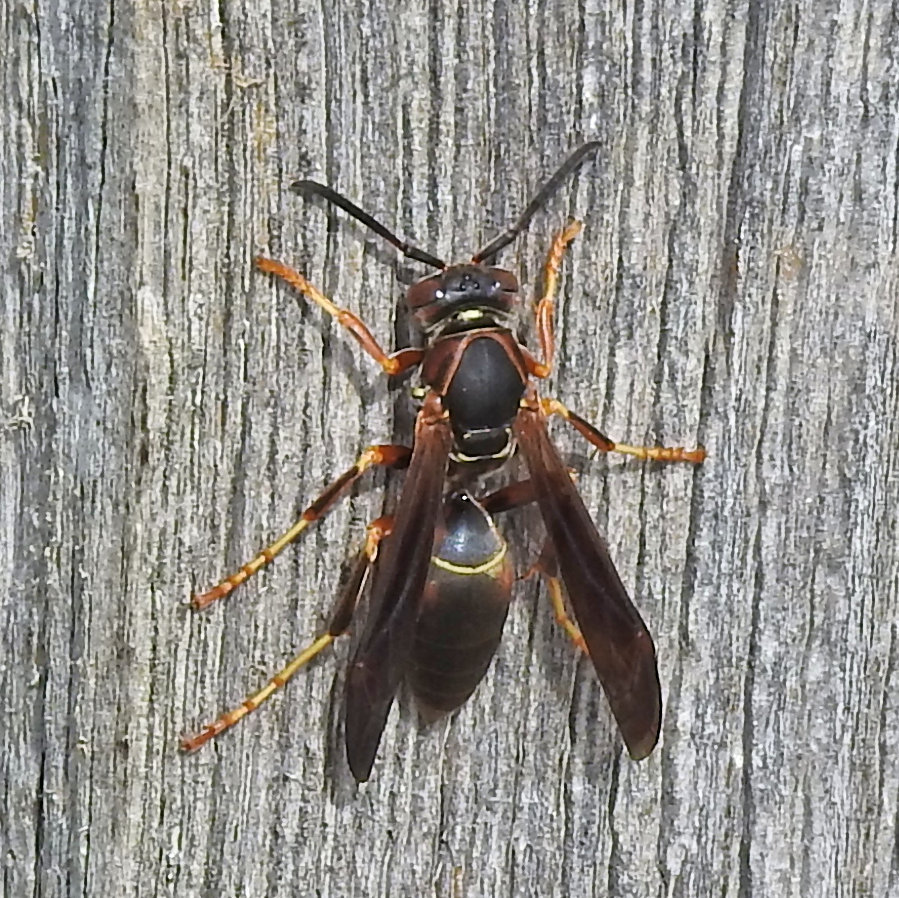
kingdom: Animalia
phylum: Arthropoda
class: Insecta
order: Hymenoptera
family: Eumenidae
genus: Polistes
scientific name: Polistes fuscatus
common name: Dark paper wasp
